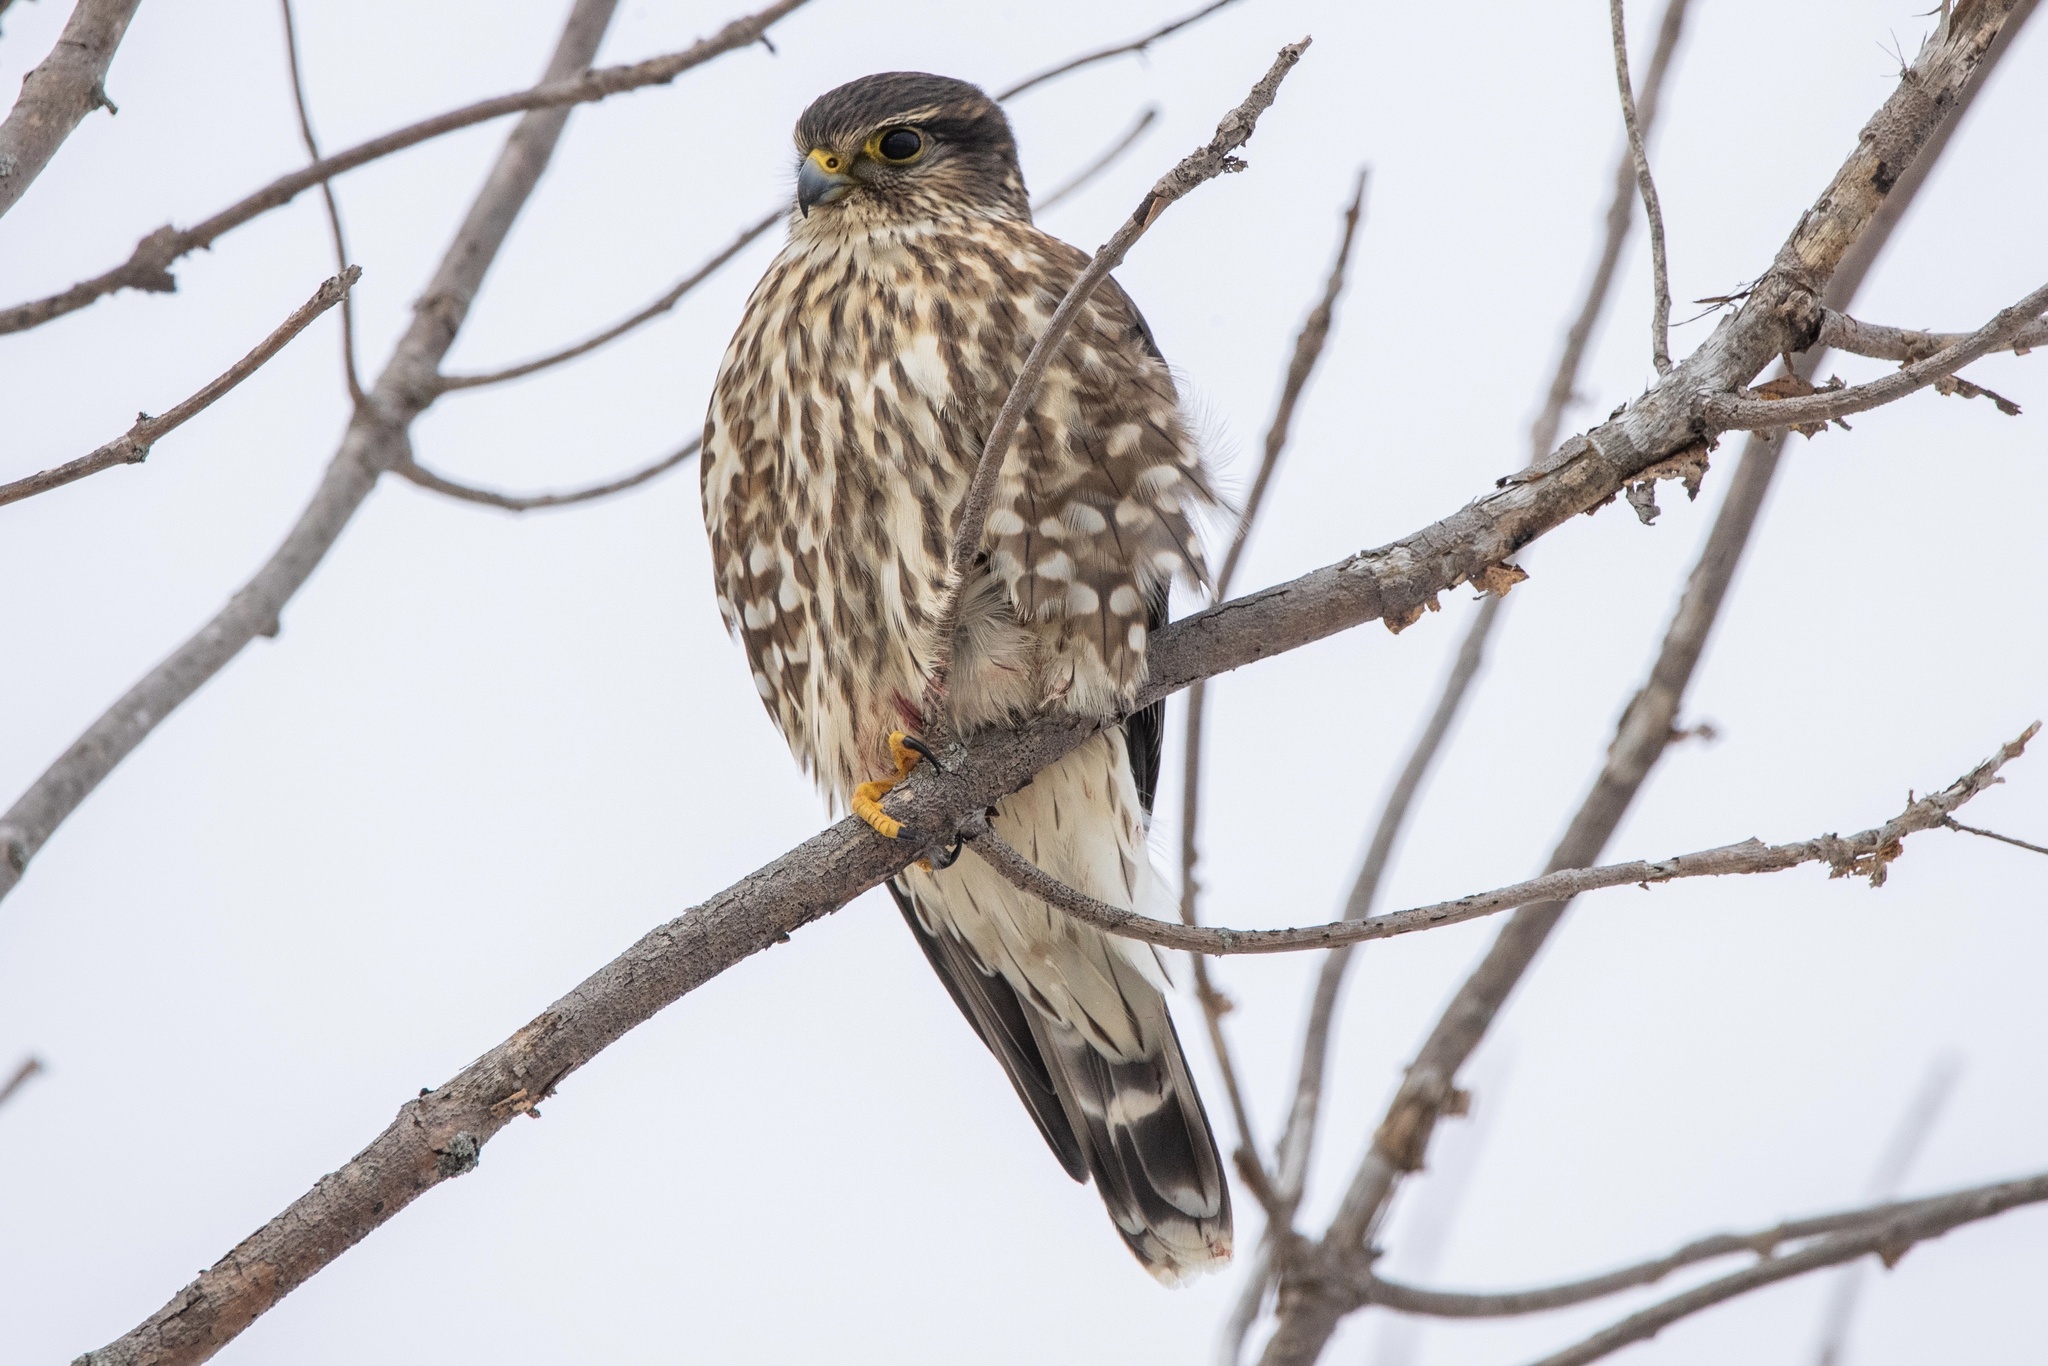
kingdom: Animalia
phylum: Chordata
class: Aves
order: Falconiformes
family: Falconidae
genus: Falco
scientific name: Falco columbarius
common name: Merlin
